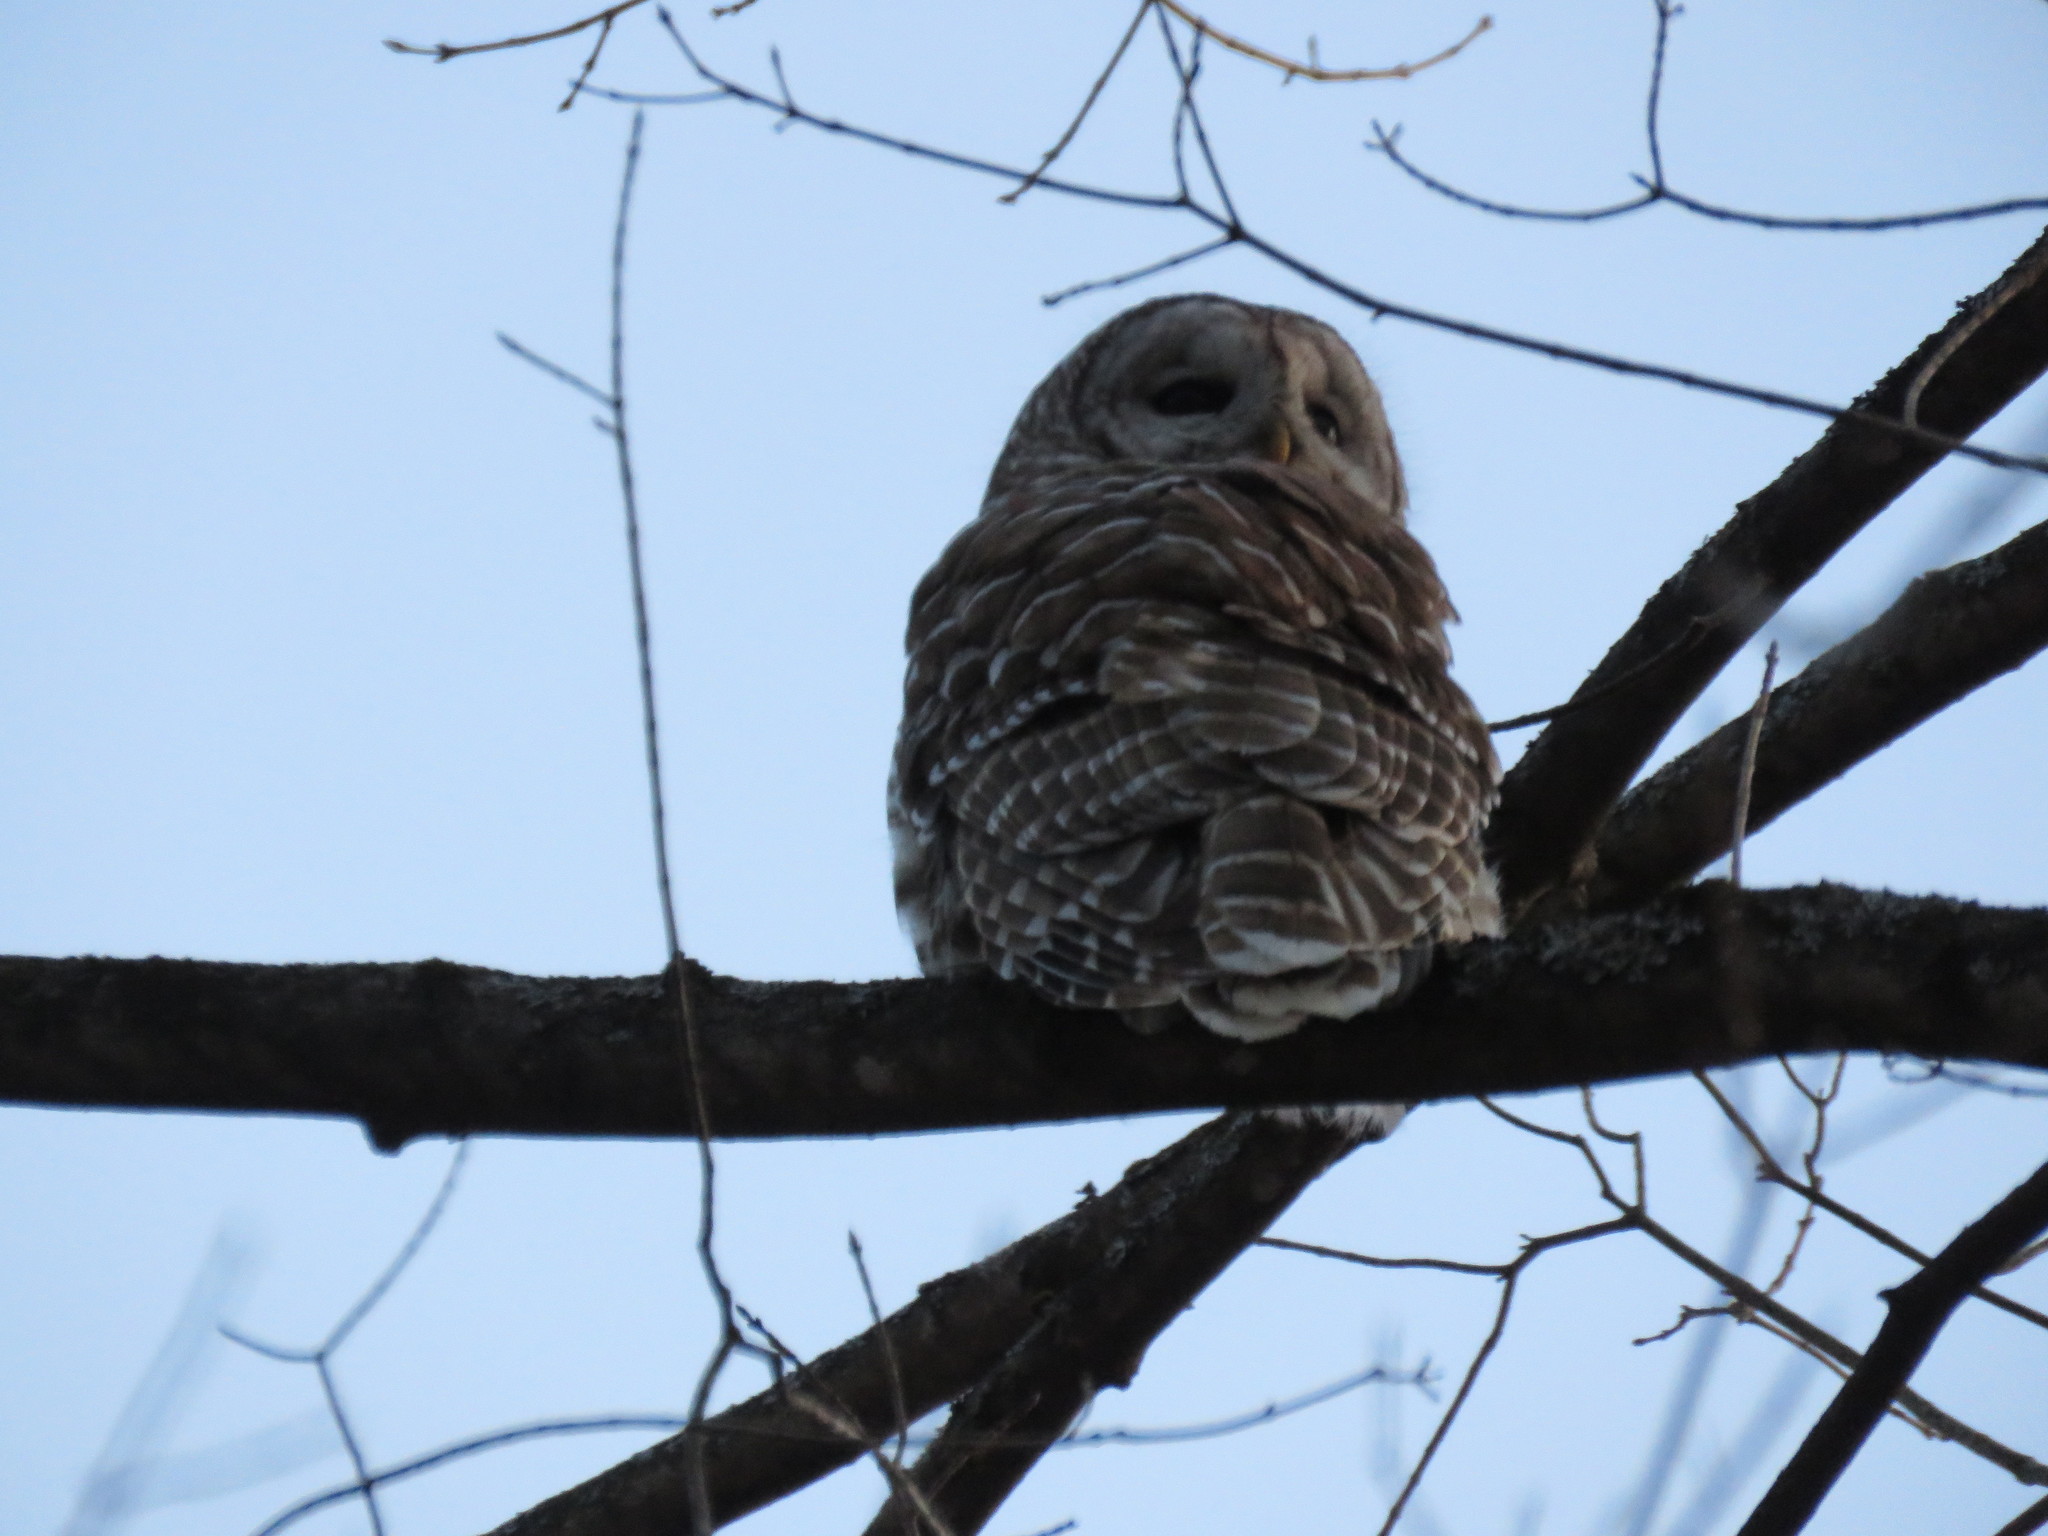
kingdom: Animalia
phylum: Chordata
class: Aves
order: Strigiformes
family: Strigidae
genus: Strix
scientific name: Strix varia
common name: Barred owl
